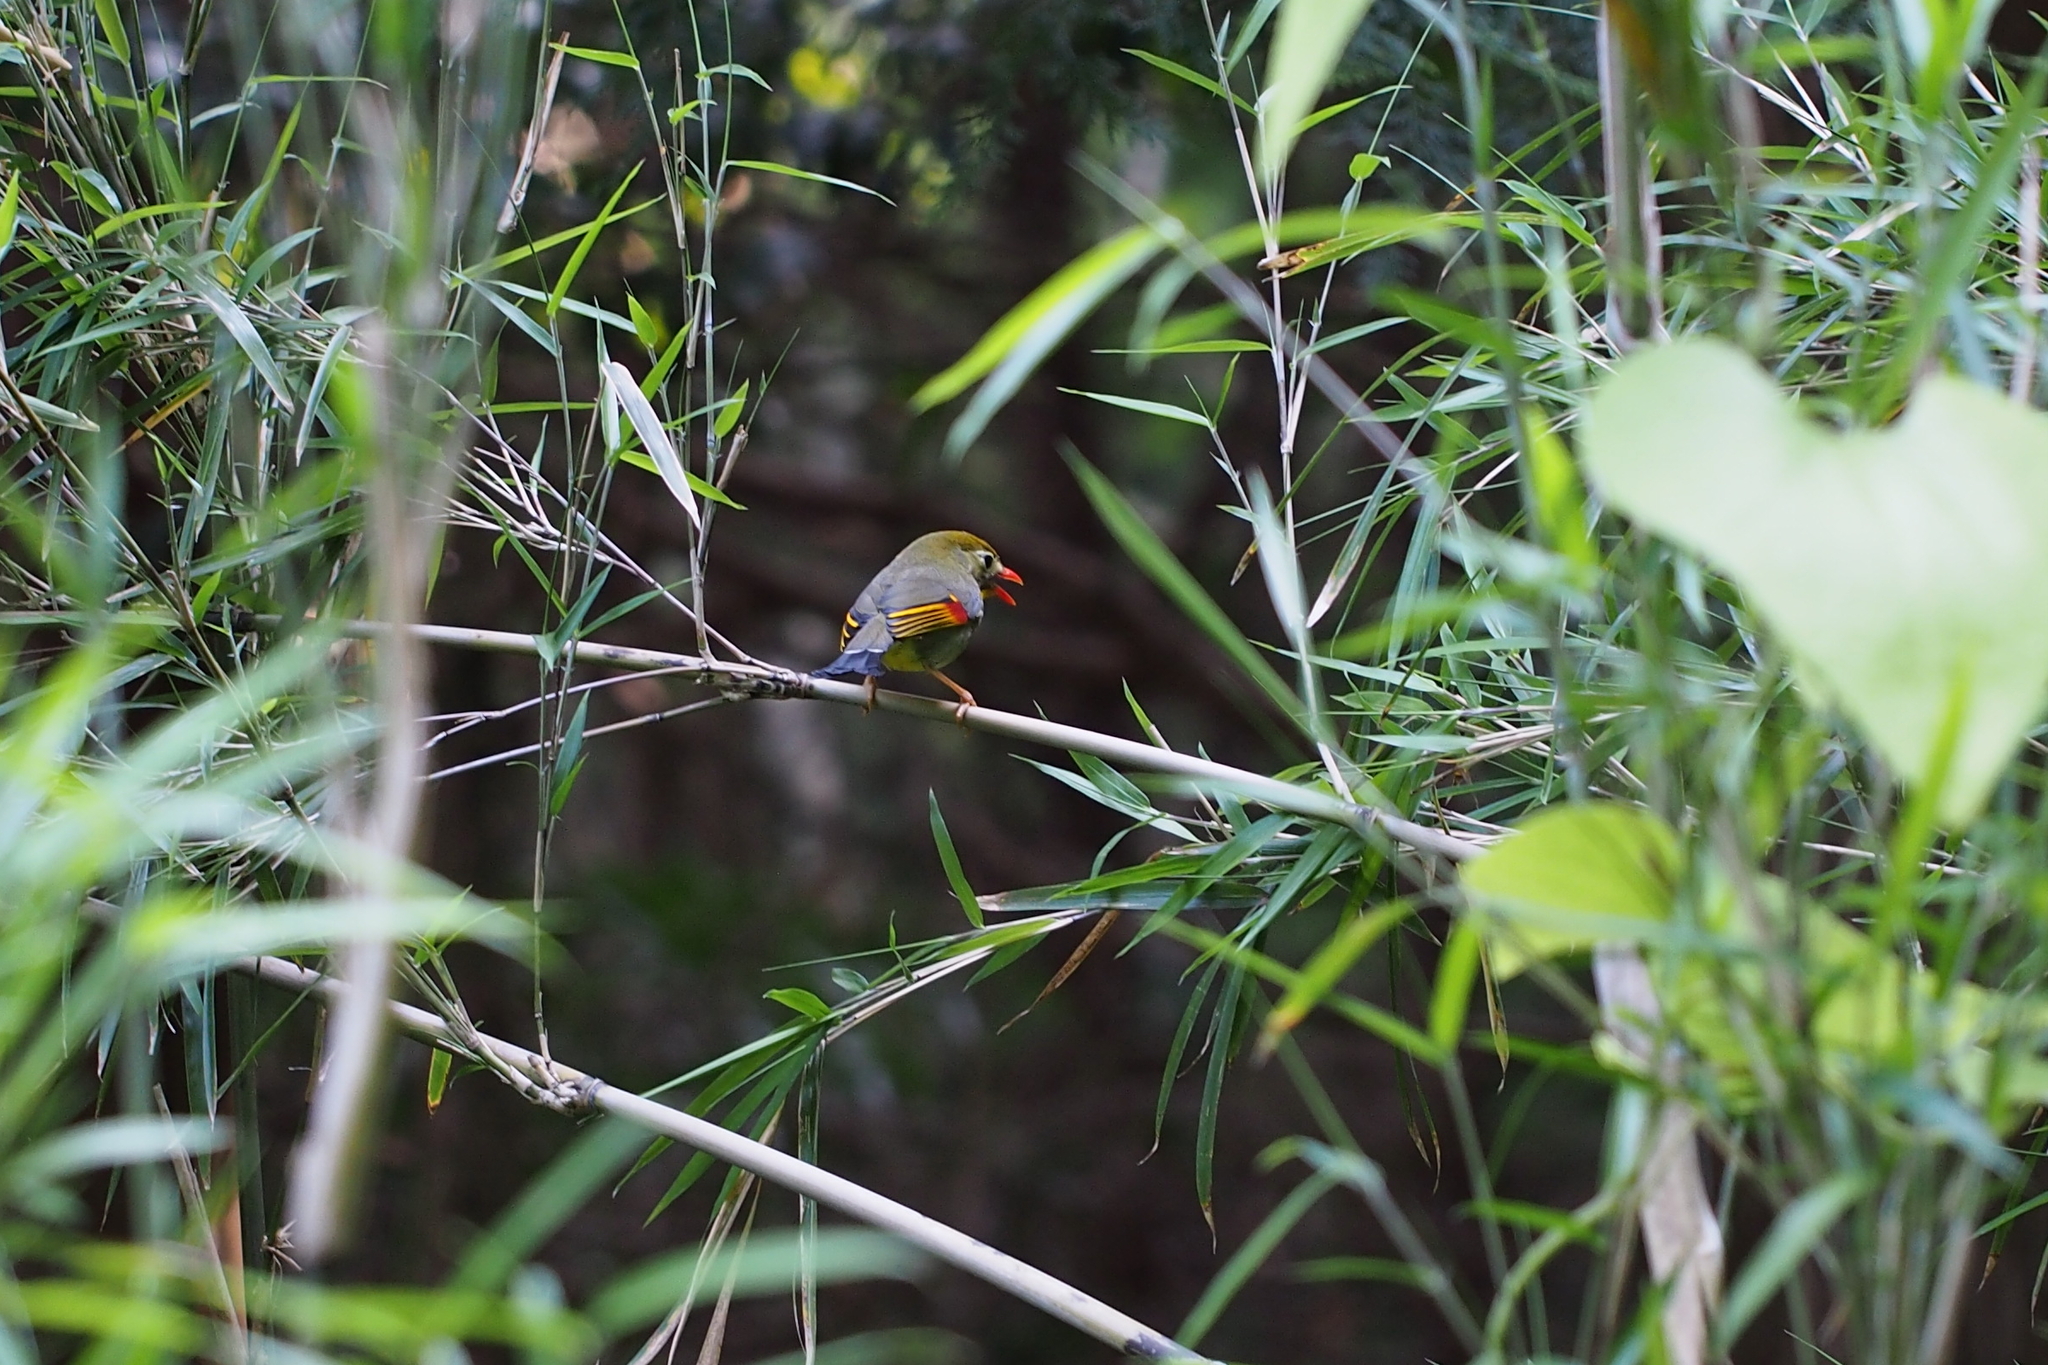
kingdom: Animalia
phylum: Chordata
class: Aves
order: Passeriformes
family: Leiothrichidae
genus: Leiothrix
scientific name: Leiothrix lutea
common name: Red-billed leiothrix
